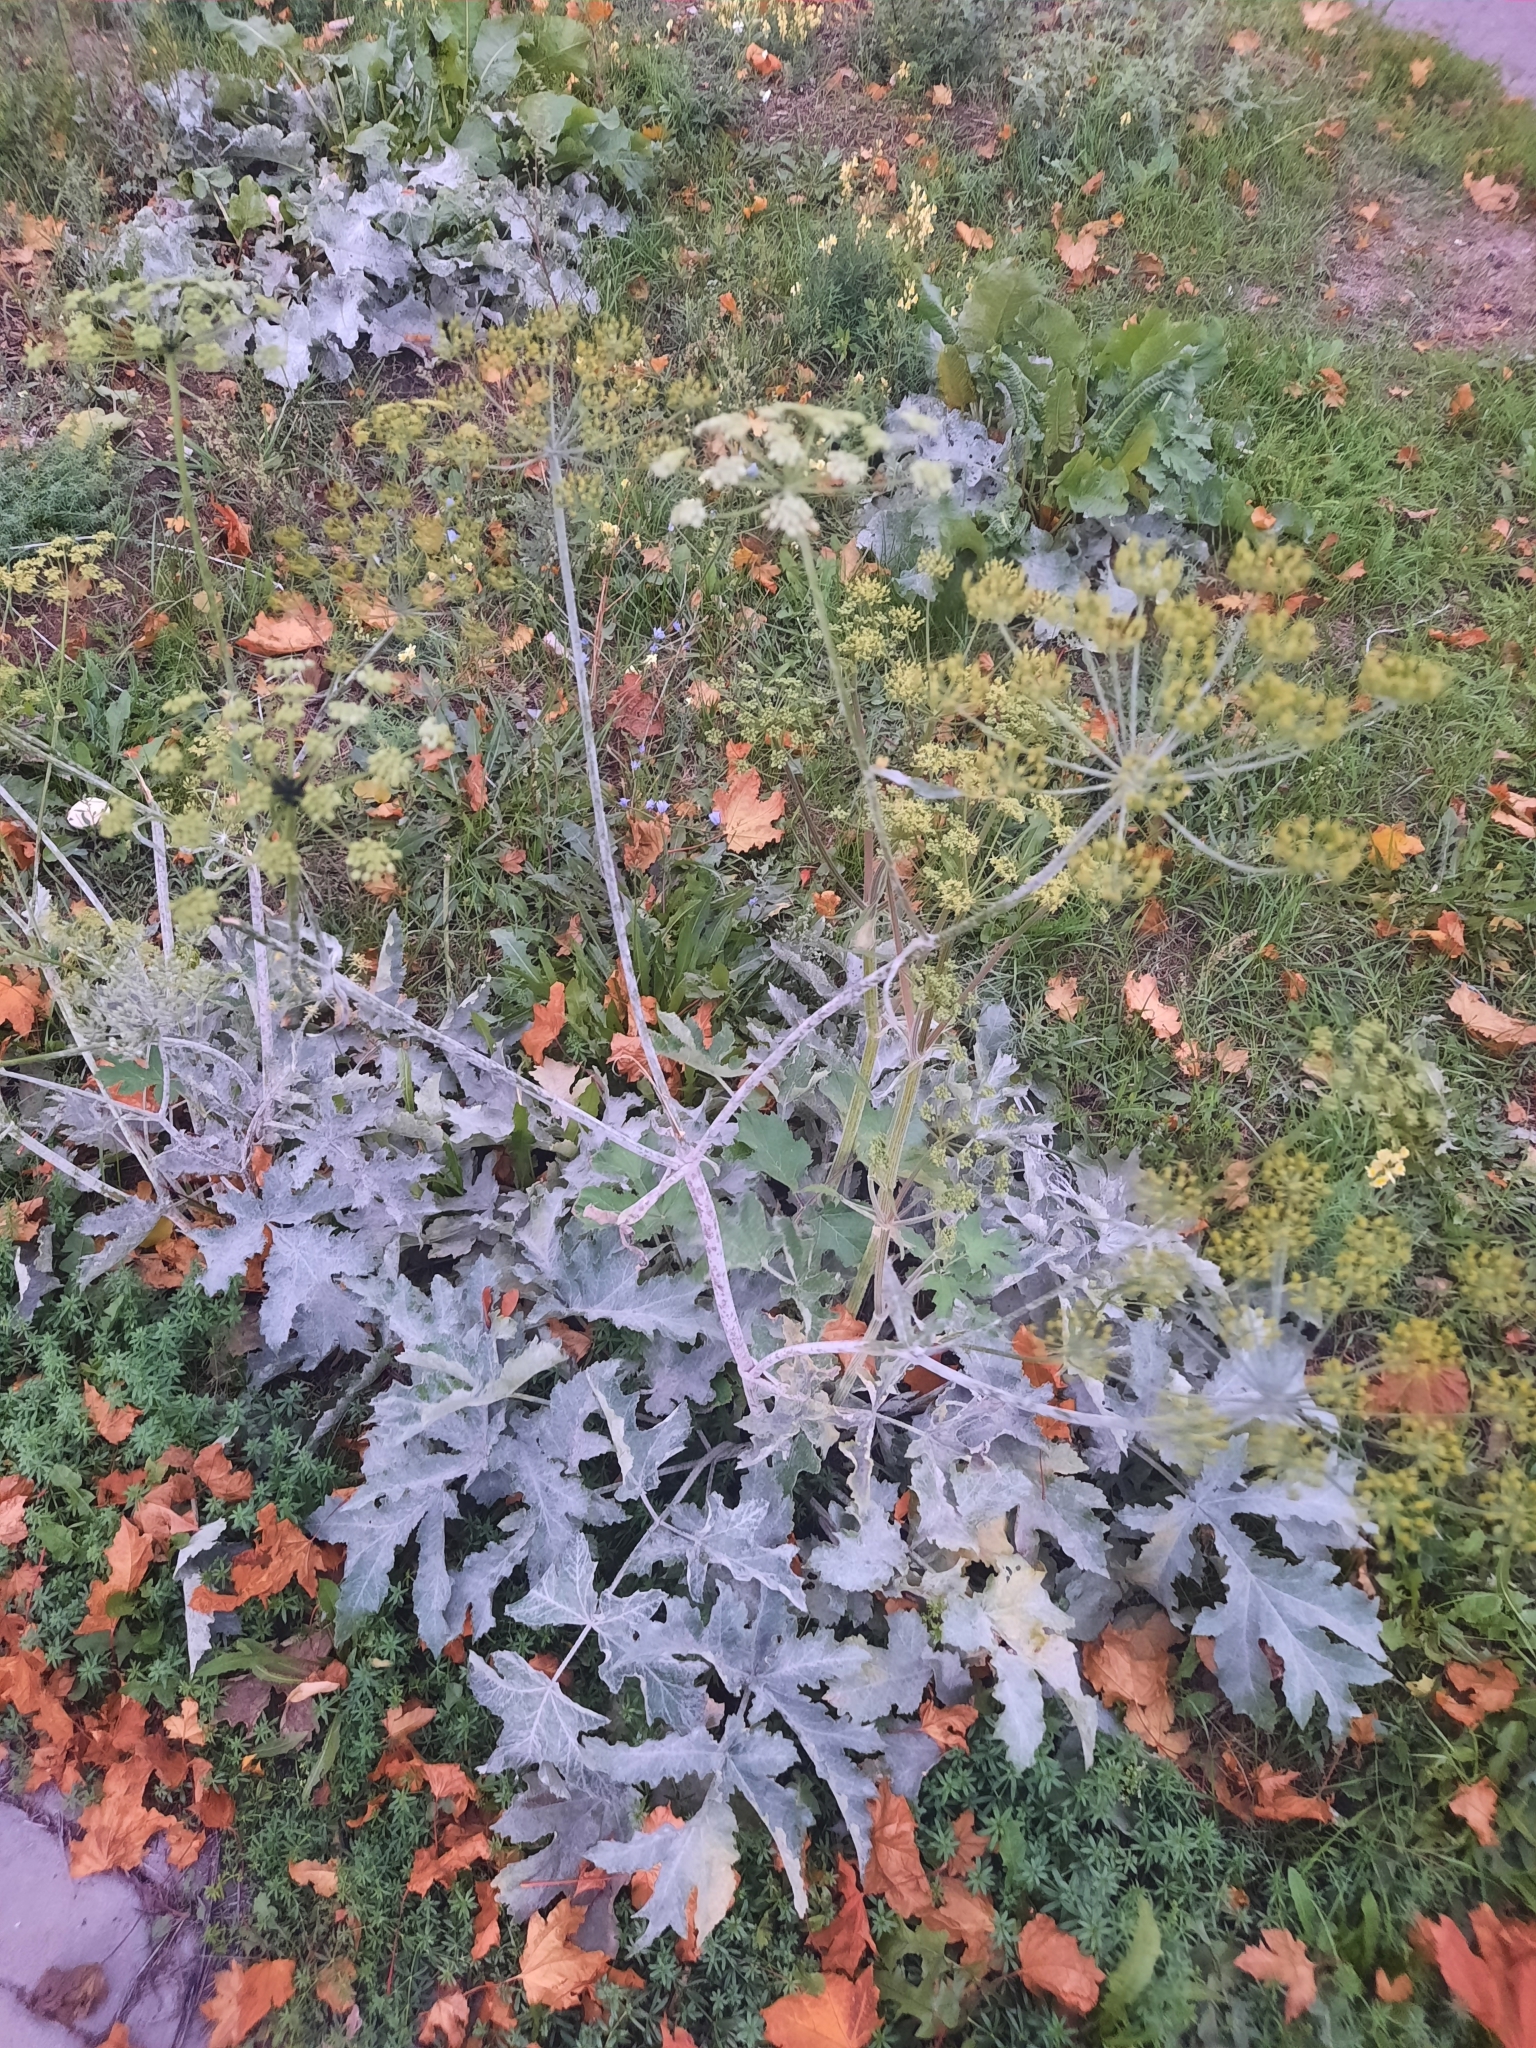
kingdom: Plantae
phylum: Tracheophyta
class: Magnoliopsida
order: Apiales
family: Apiaceae
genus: Heracleum
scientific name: Heracleum sphondylium
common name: Hogweed
